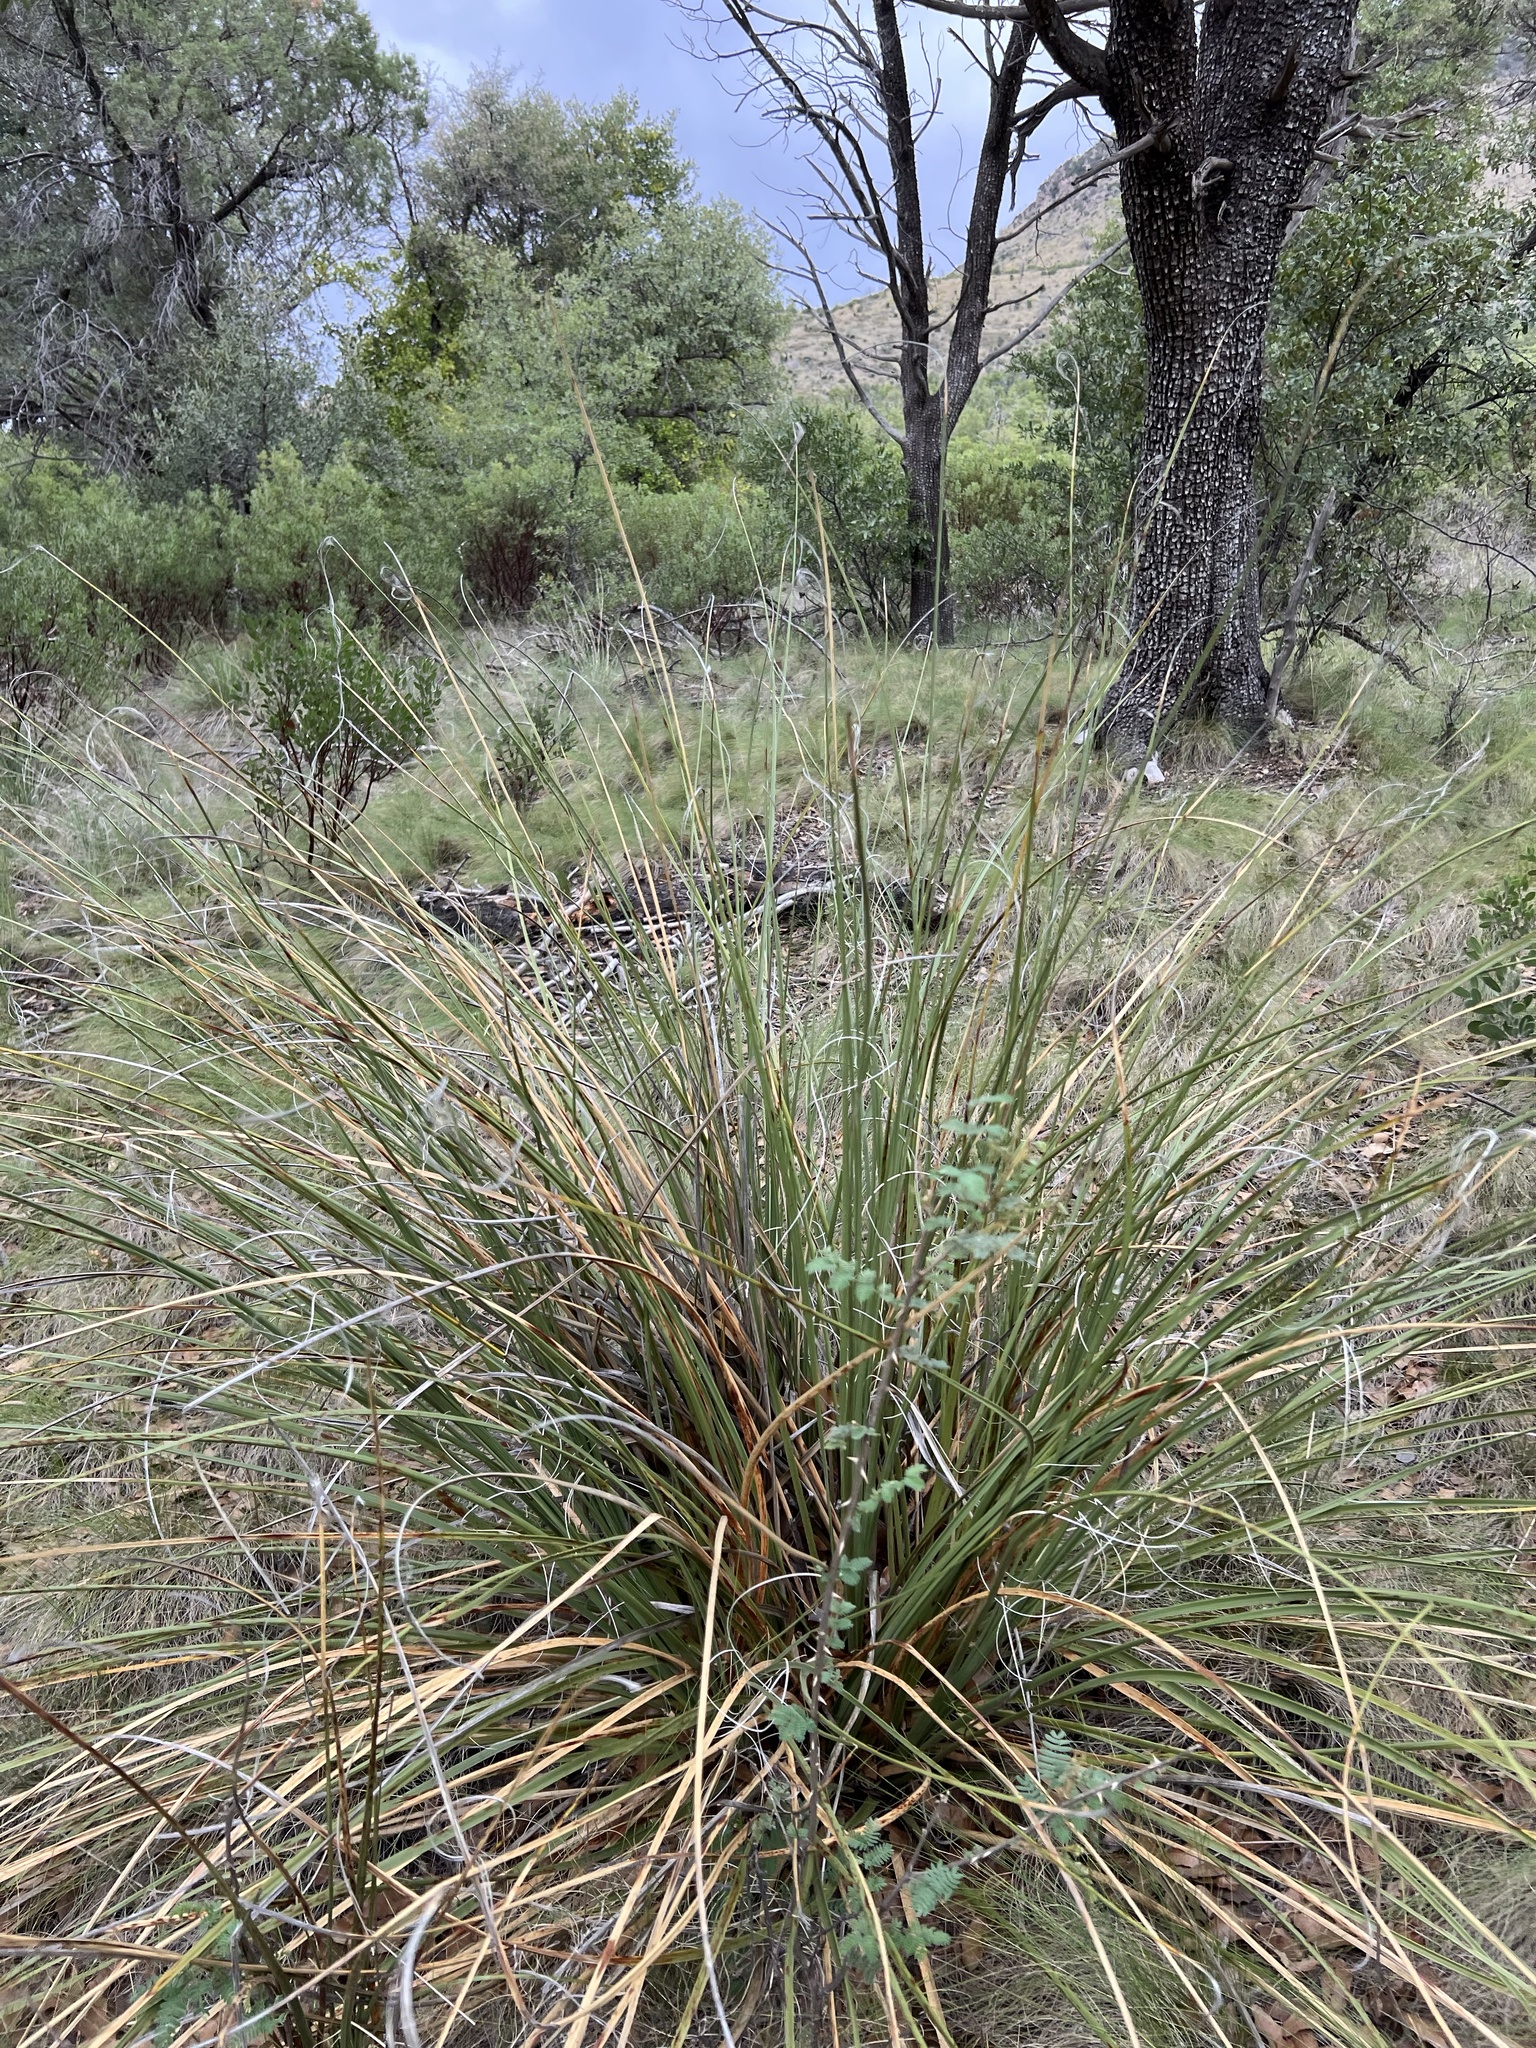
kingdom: Plantae
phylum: Tracheophyta
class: Liliopsida
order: Asparagales
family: Asparagaceae
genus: Nolina
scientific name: Nolina microcarpa
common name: Bear-grass
